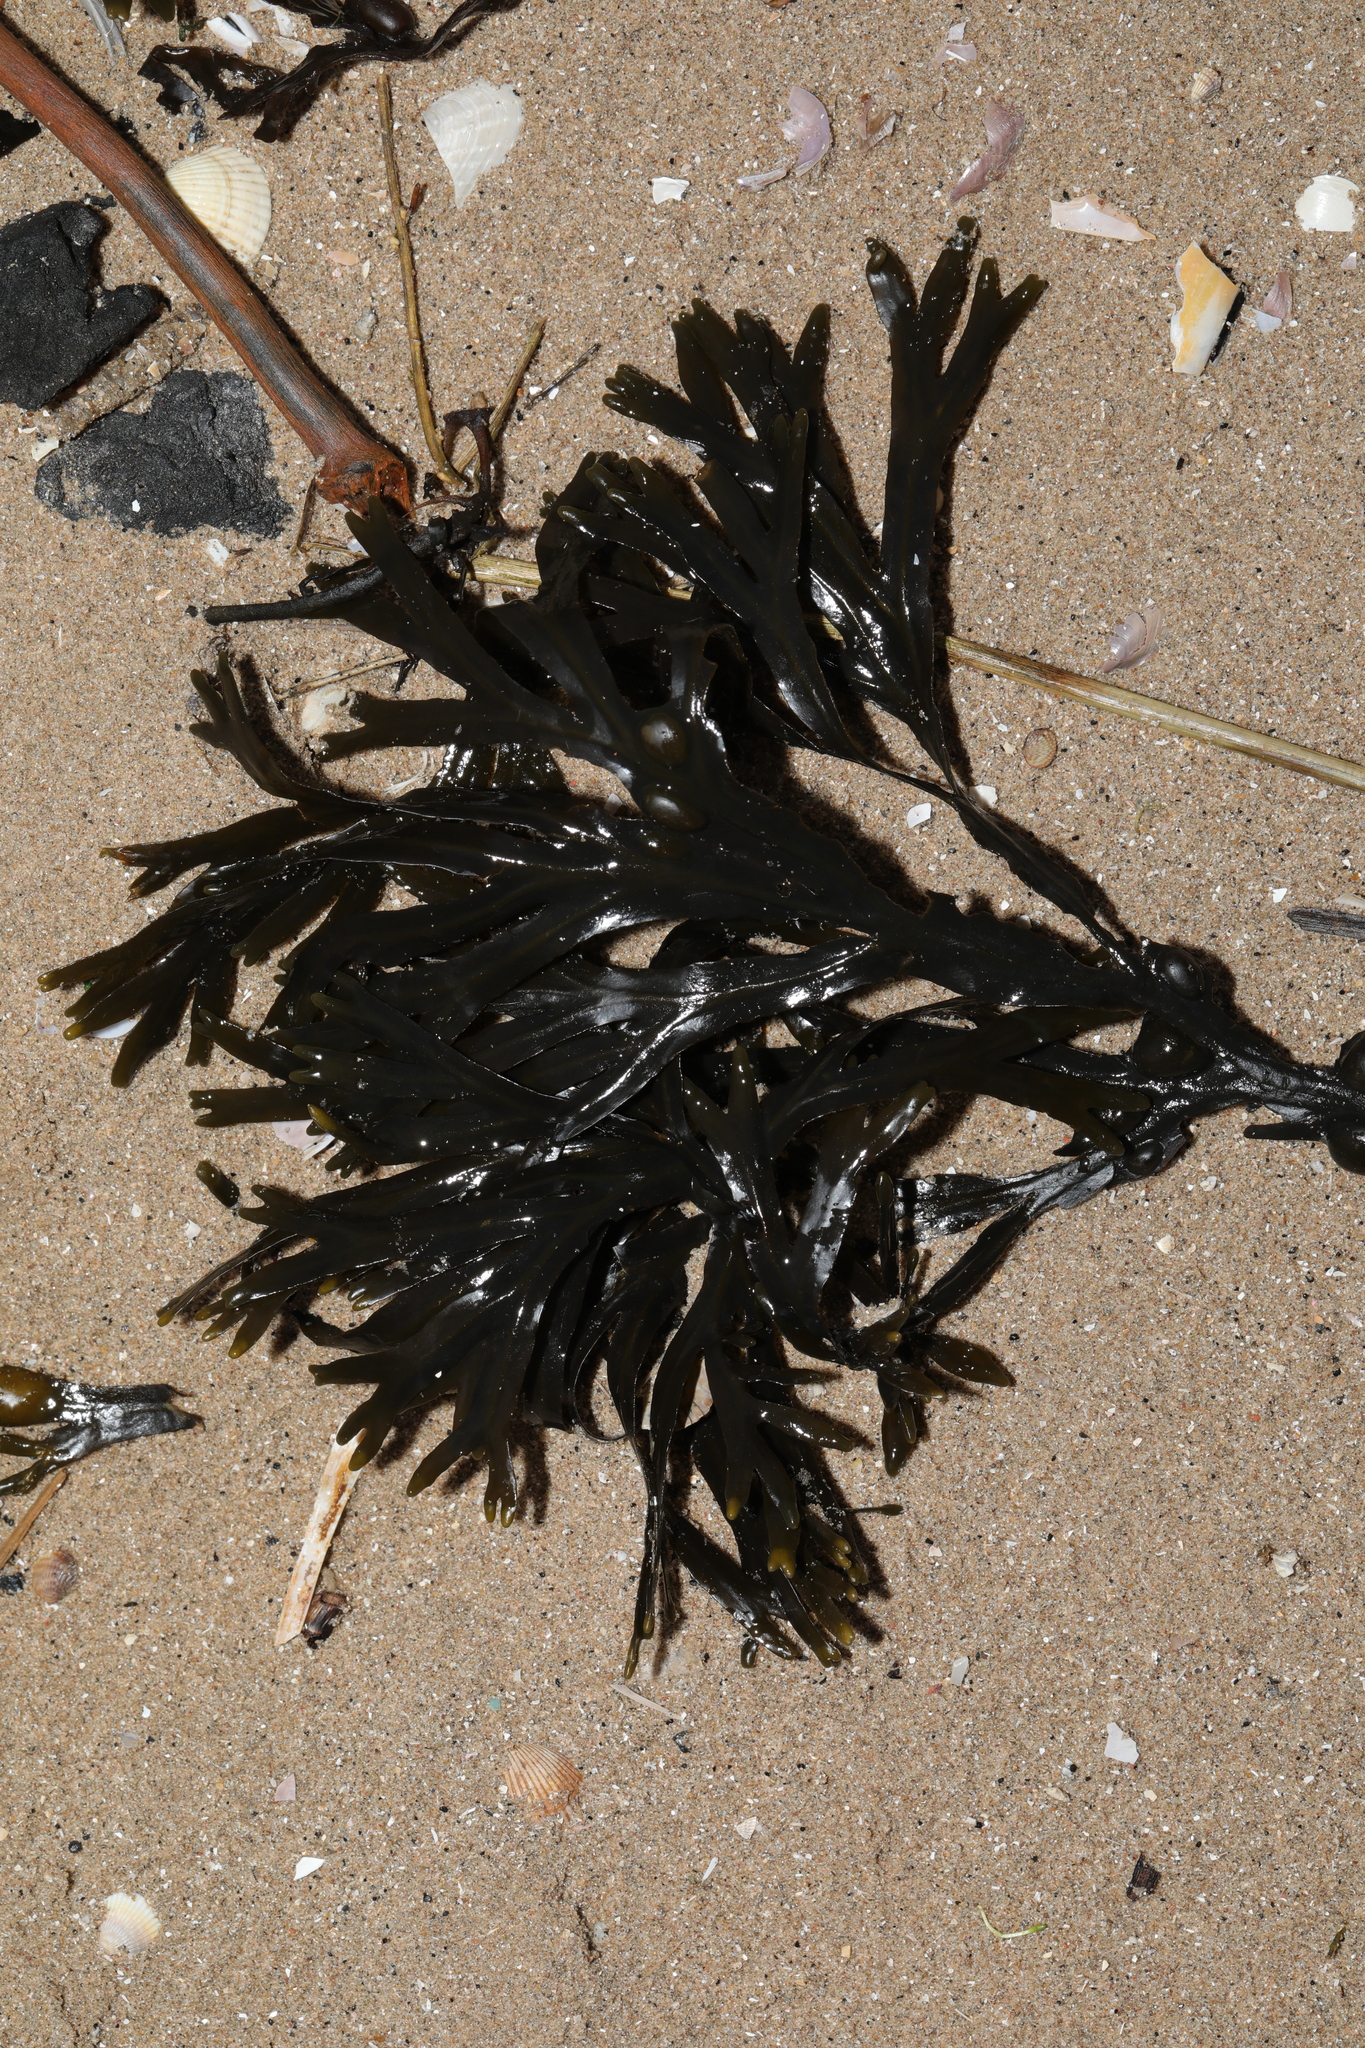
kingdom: Chromista
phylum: Ochrophyta
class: Phaeophyceae
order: Fucales
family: Fucaceae
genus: Fucus
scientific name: Fucus serratus
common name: Toothed wrack
